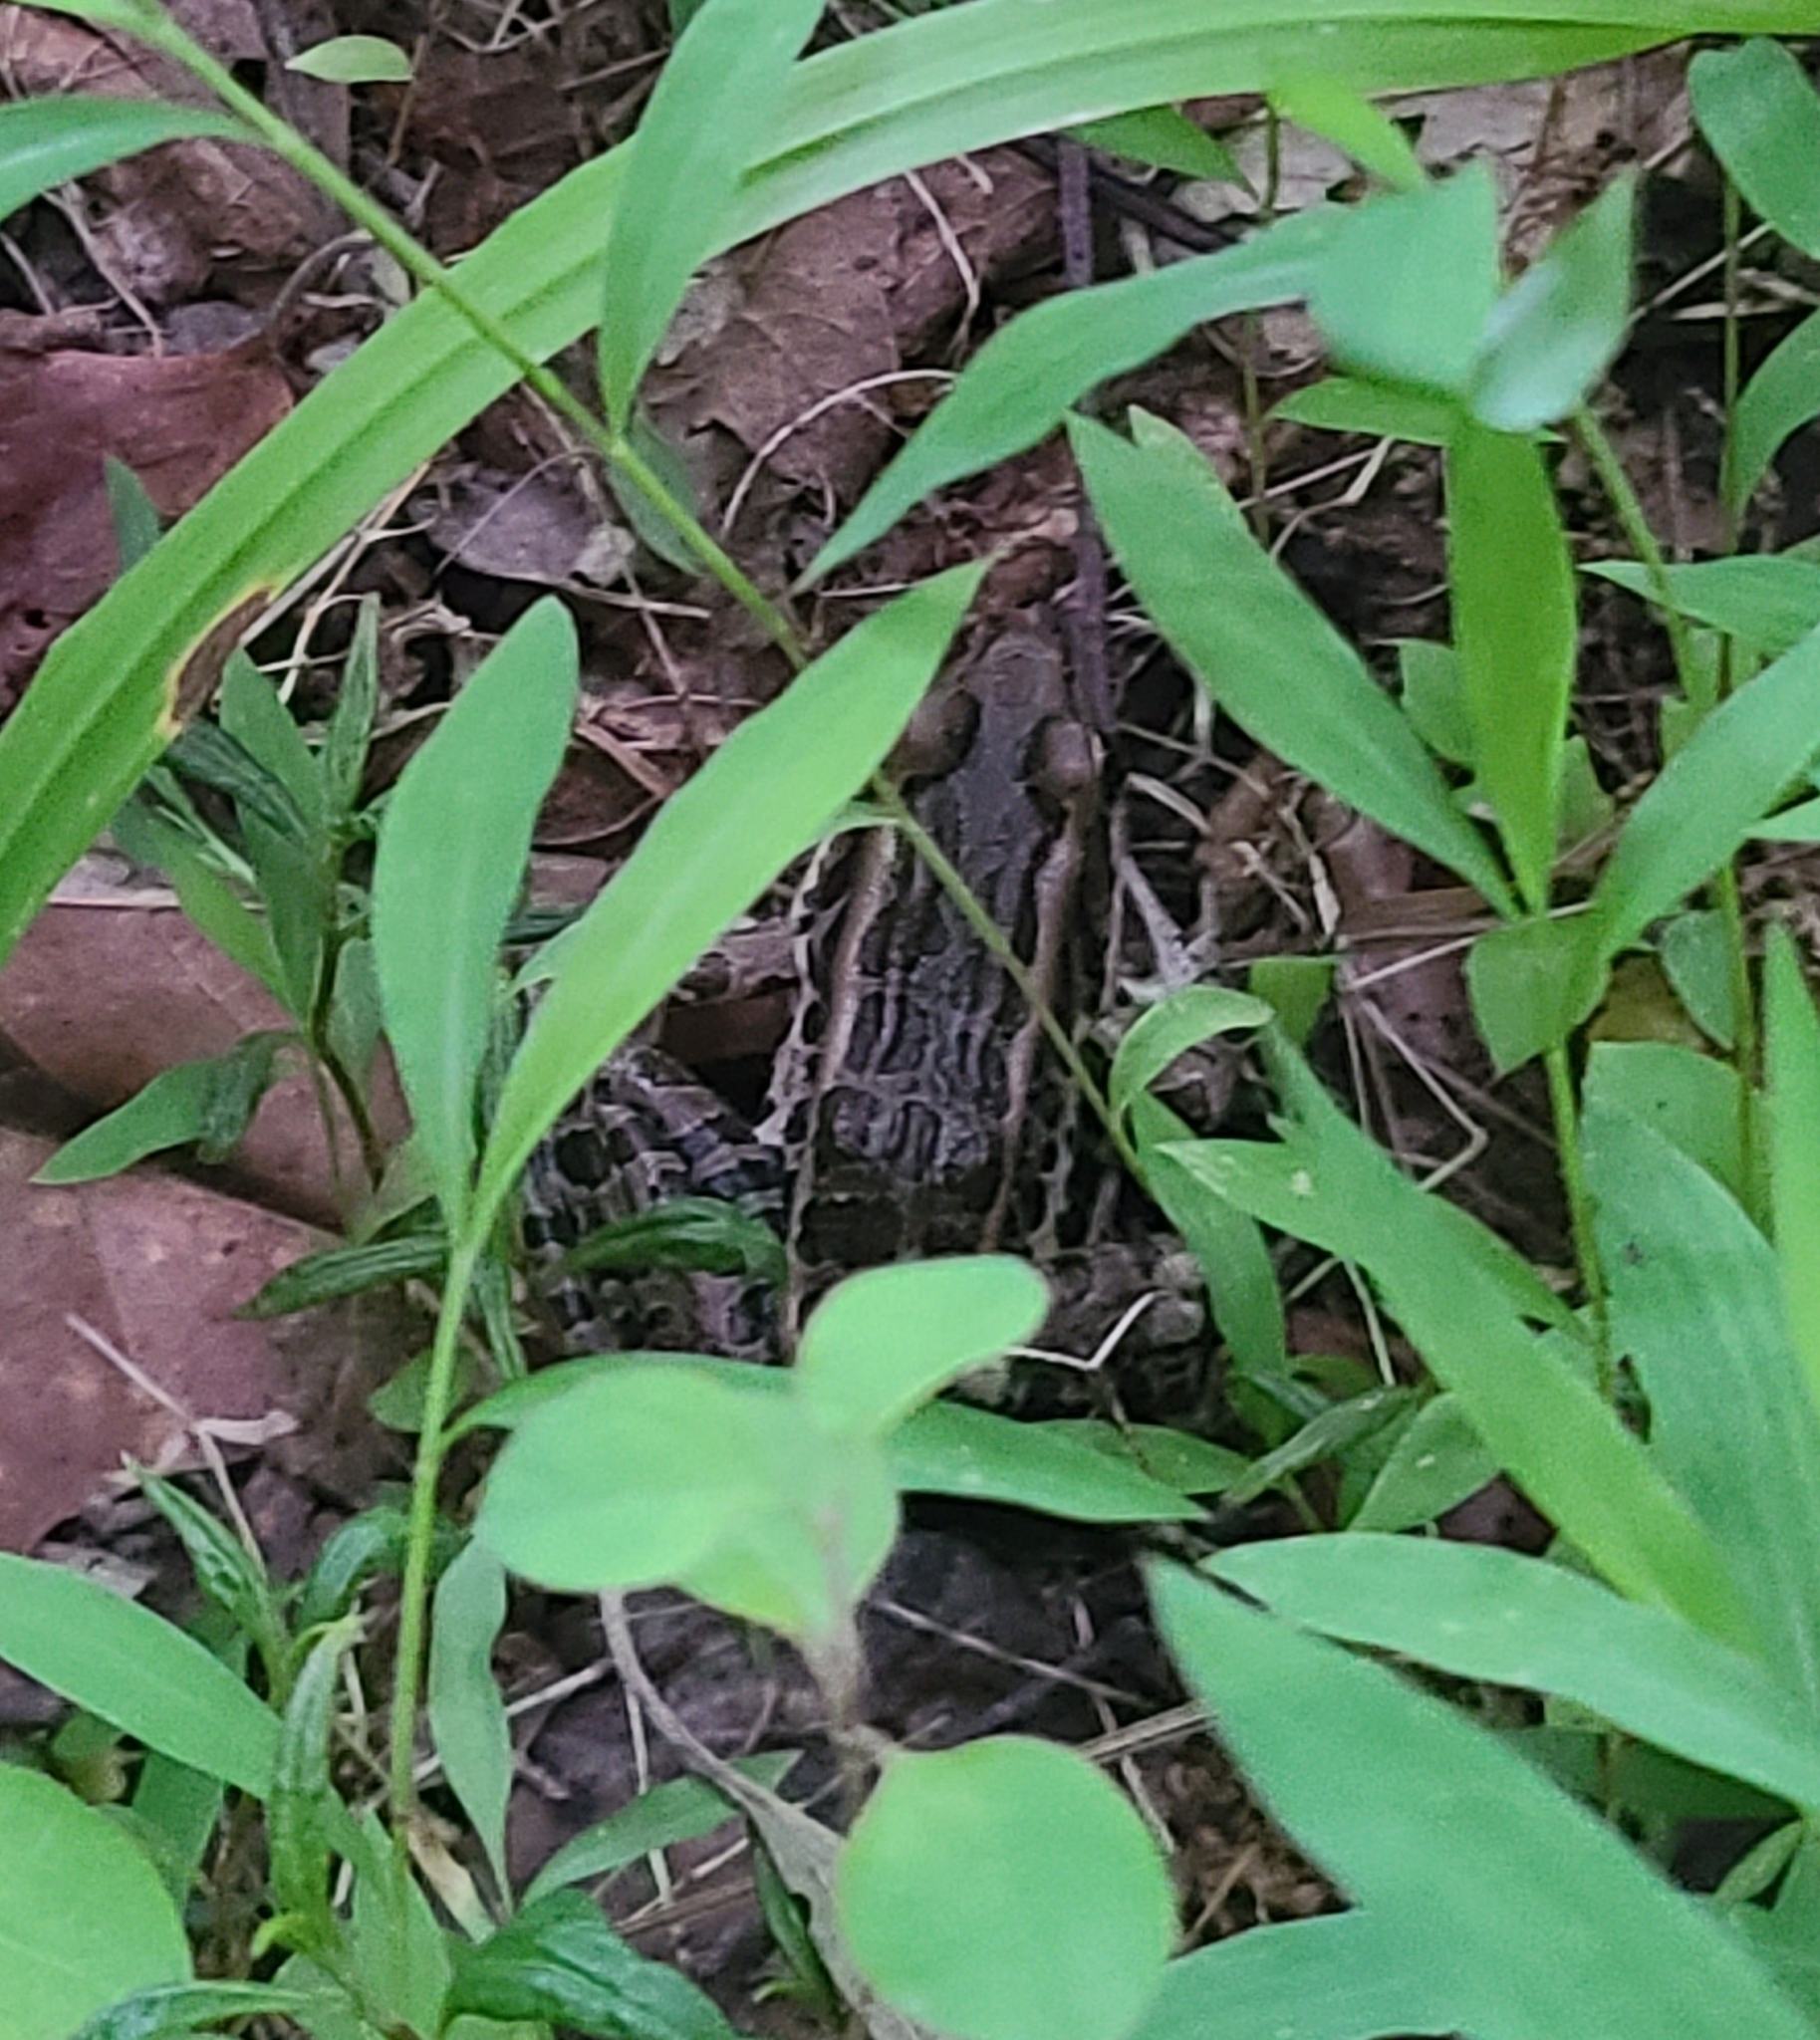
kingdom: Animalia
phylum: Chordata
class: Amphibia
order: Anura
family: Ranidae
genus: Lithobates
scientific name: Lithobates palustris
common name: Pickerel frog
